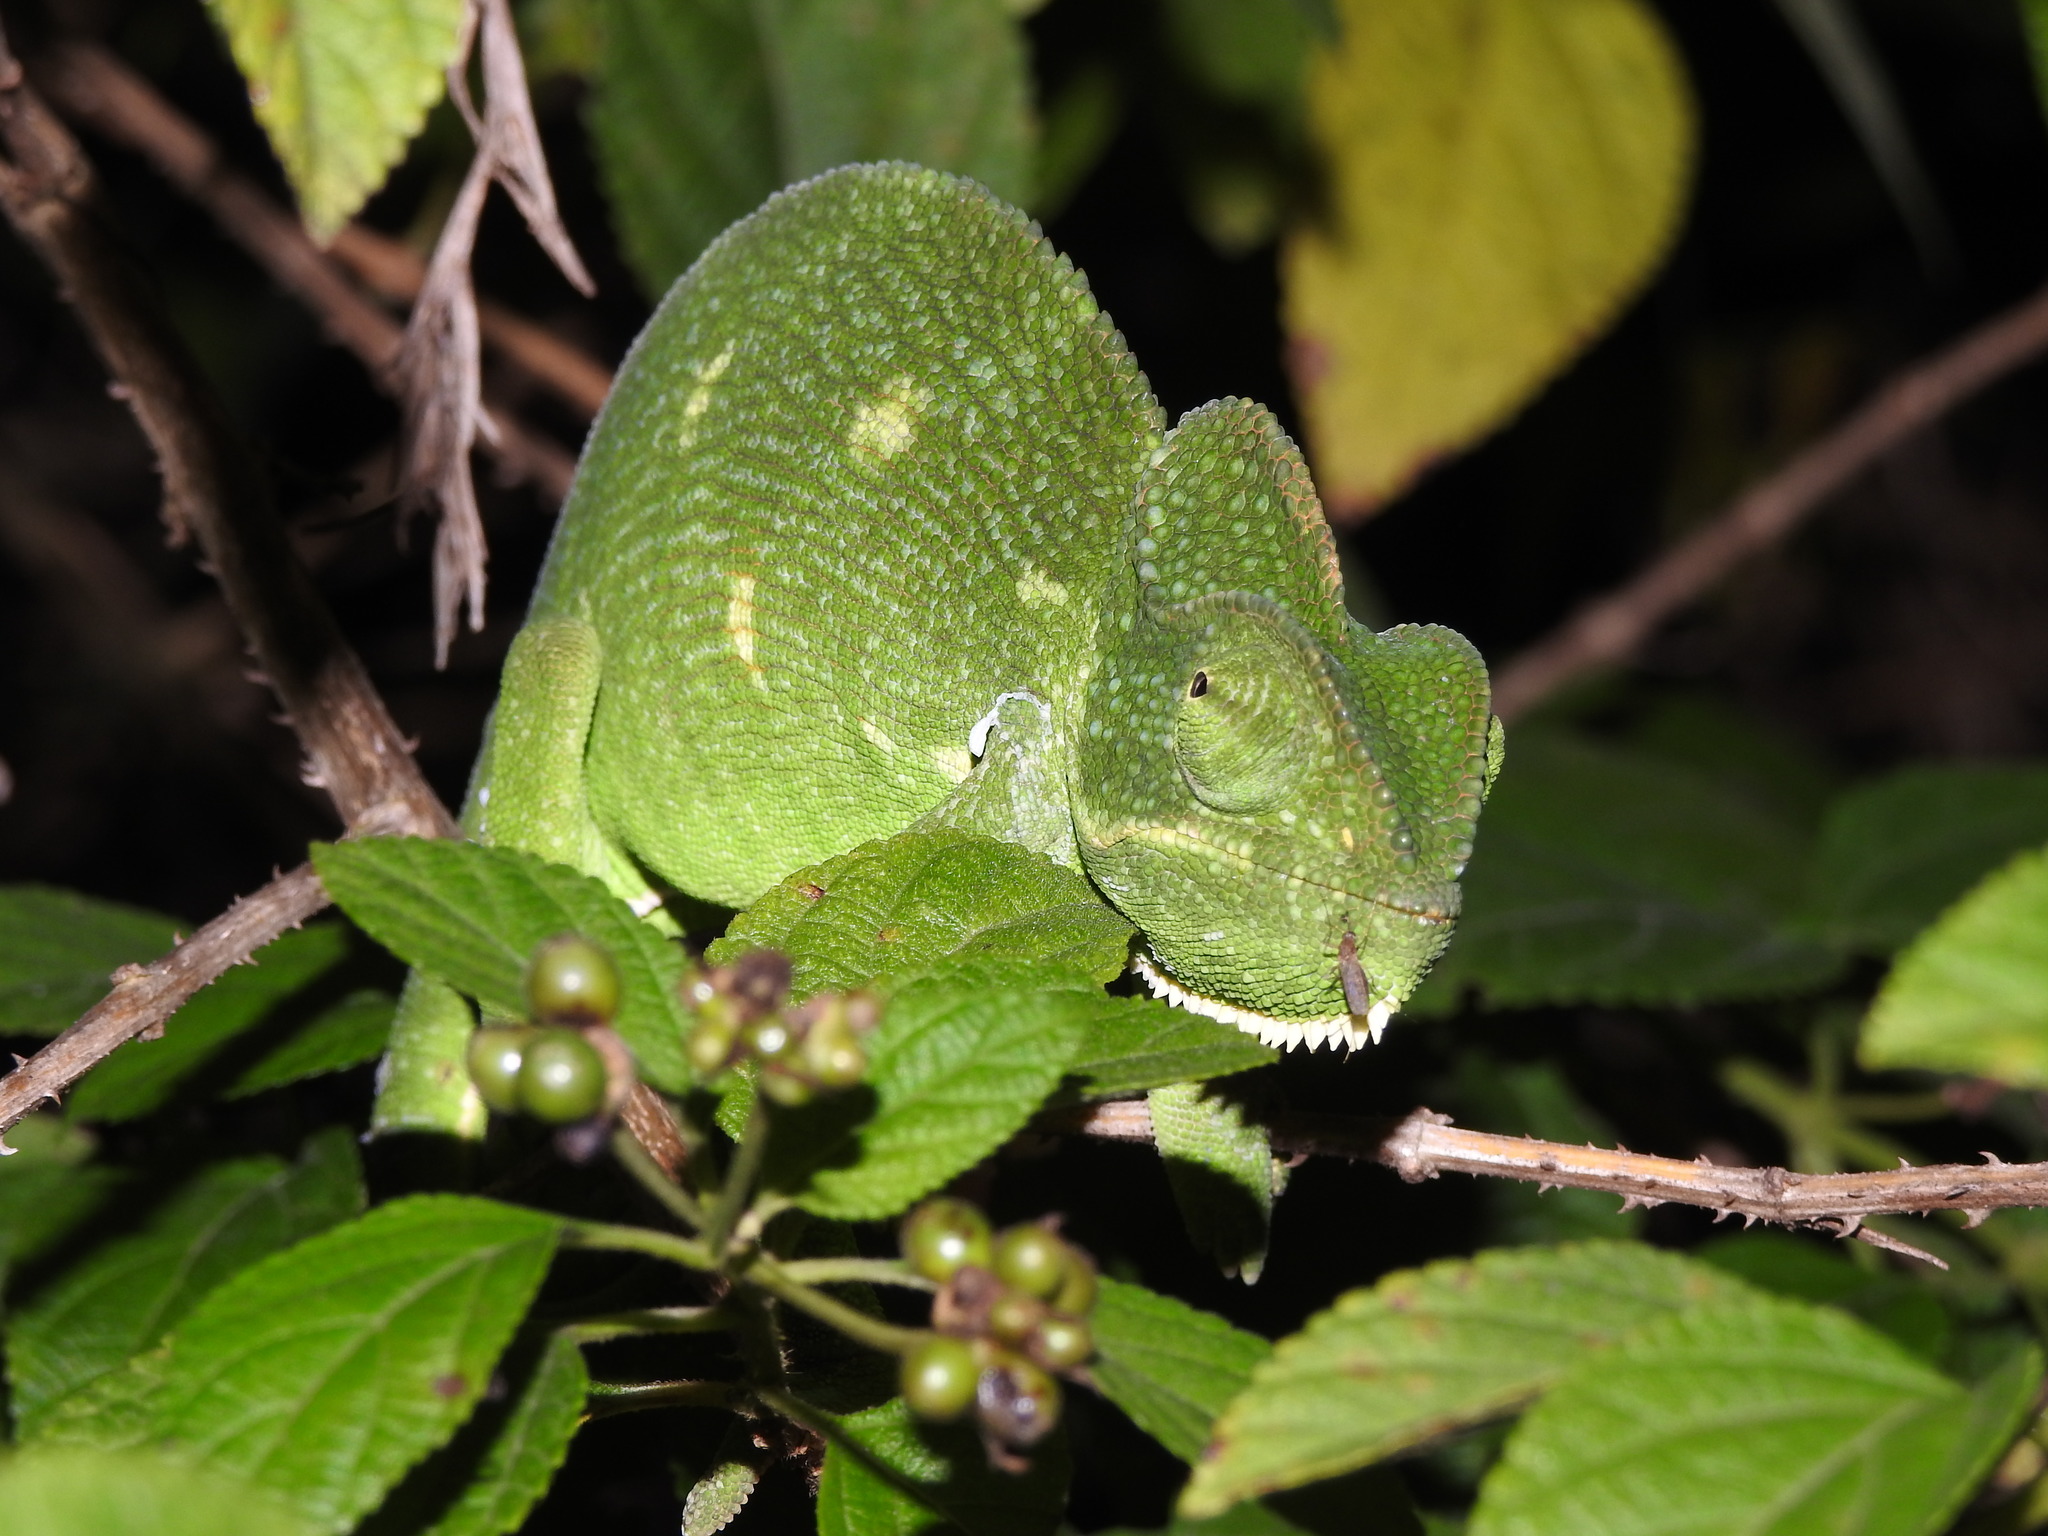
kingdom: Animalia
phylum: Chordata
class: Squamata
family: Chamaeleonidae
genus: Chamaeleo
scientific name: Chamaeleo zeylanicus
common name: Indian chameleon
